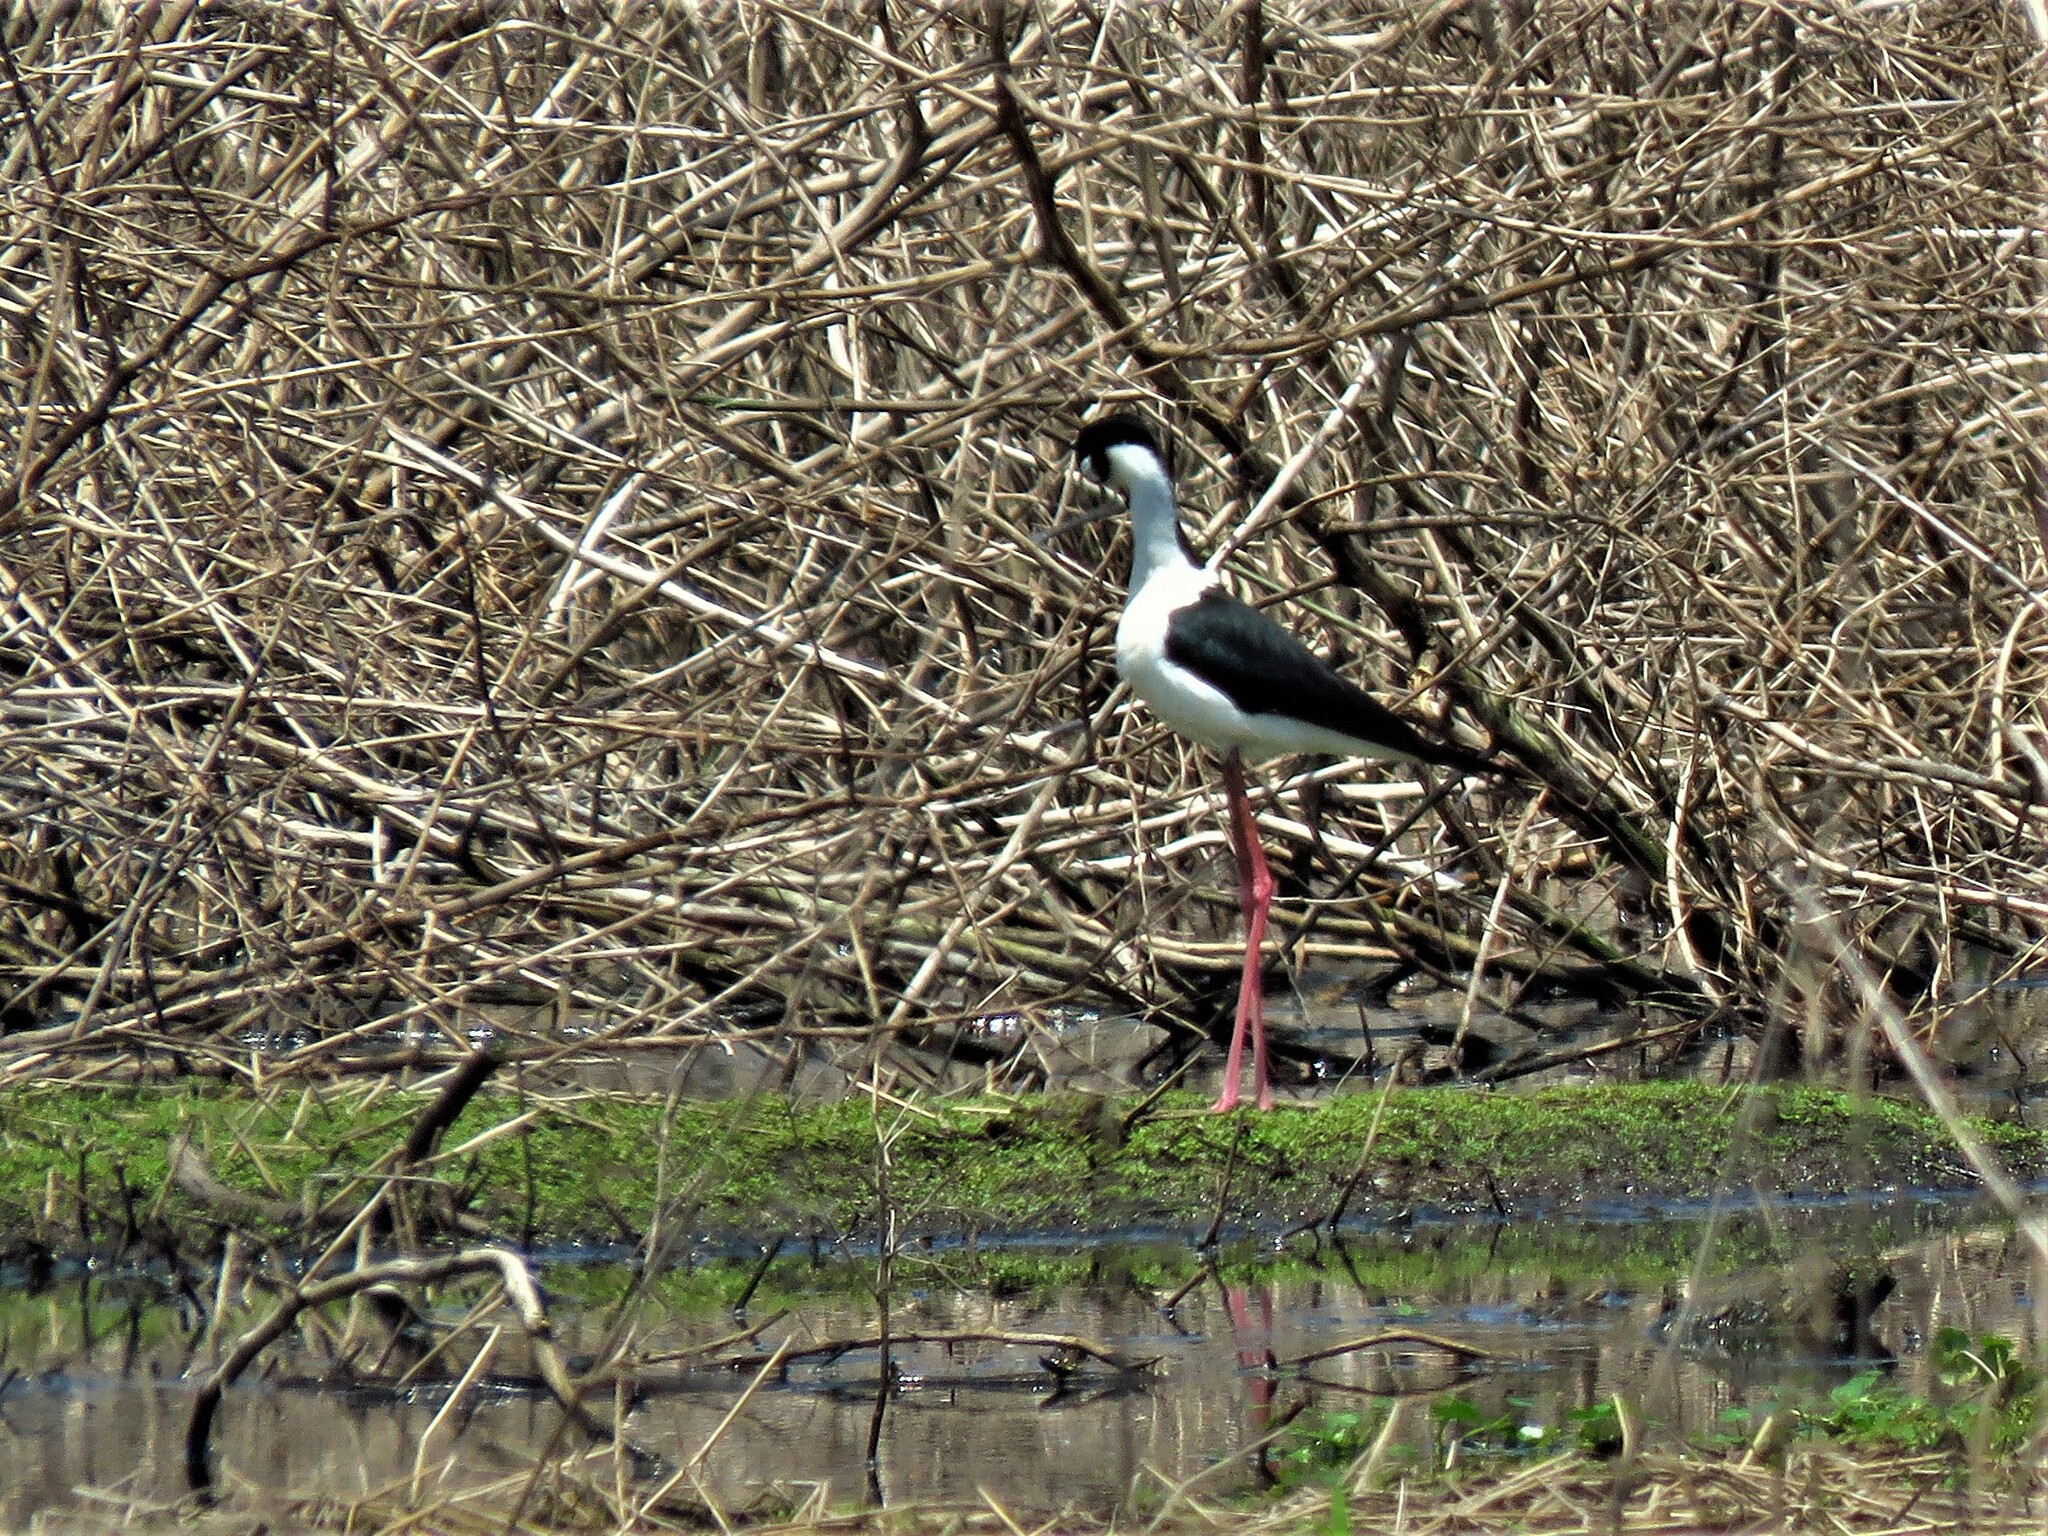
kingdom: Animalia
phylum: Chordata
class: Aves
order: Charadriiformes
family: Recurvirostridae
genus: Himantopus
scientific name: Himantopus mexicanus
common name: Black-necked stilt
